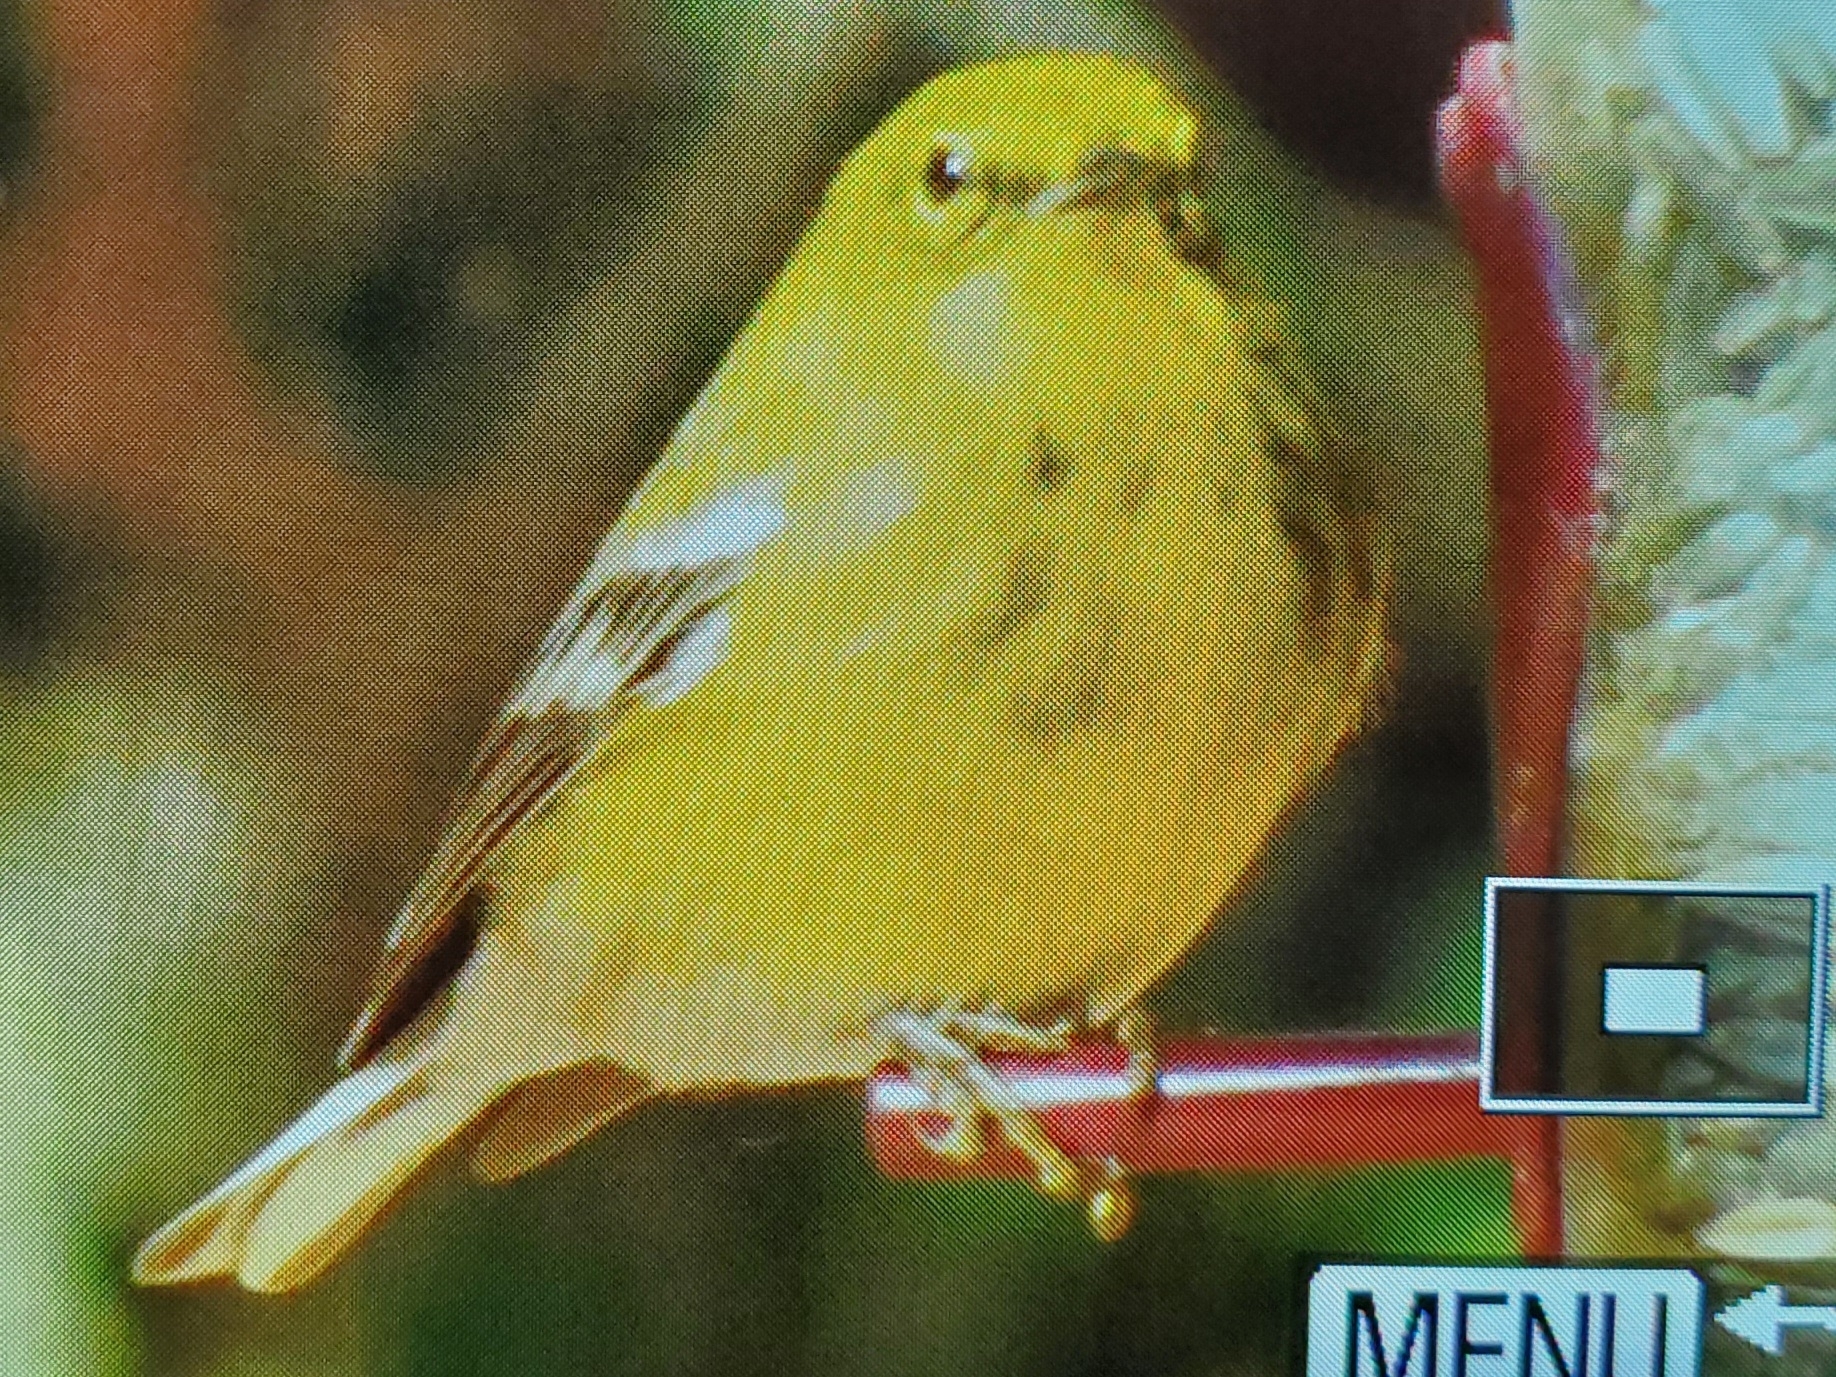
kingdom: Animalia
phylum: Chordata
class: Aves
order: Passeriformes
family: Parulidae
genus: Setophaga
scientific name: Setophaga pinus
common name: Pine warbler
